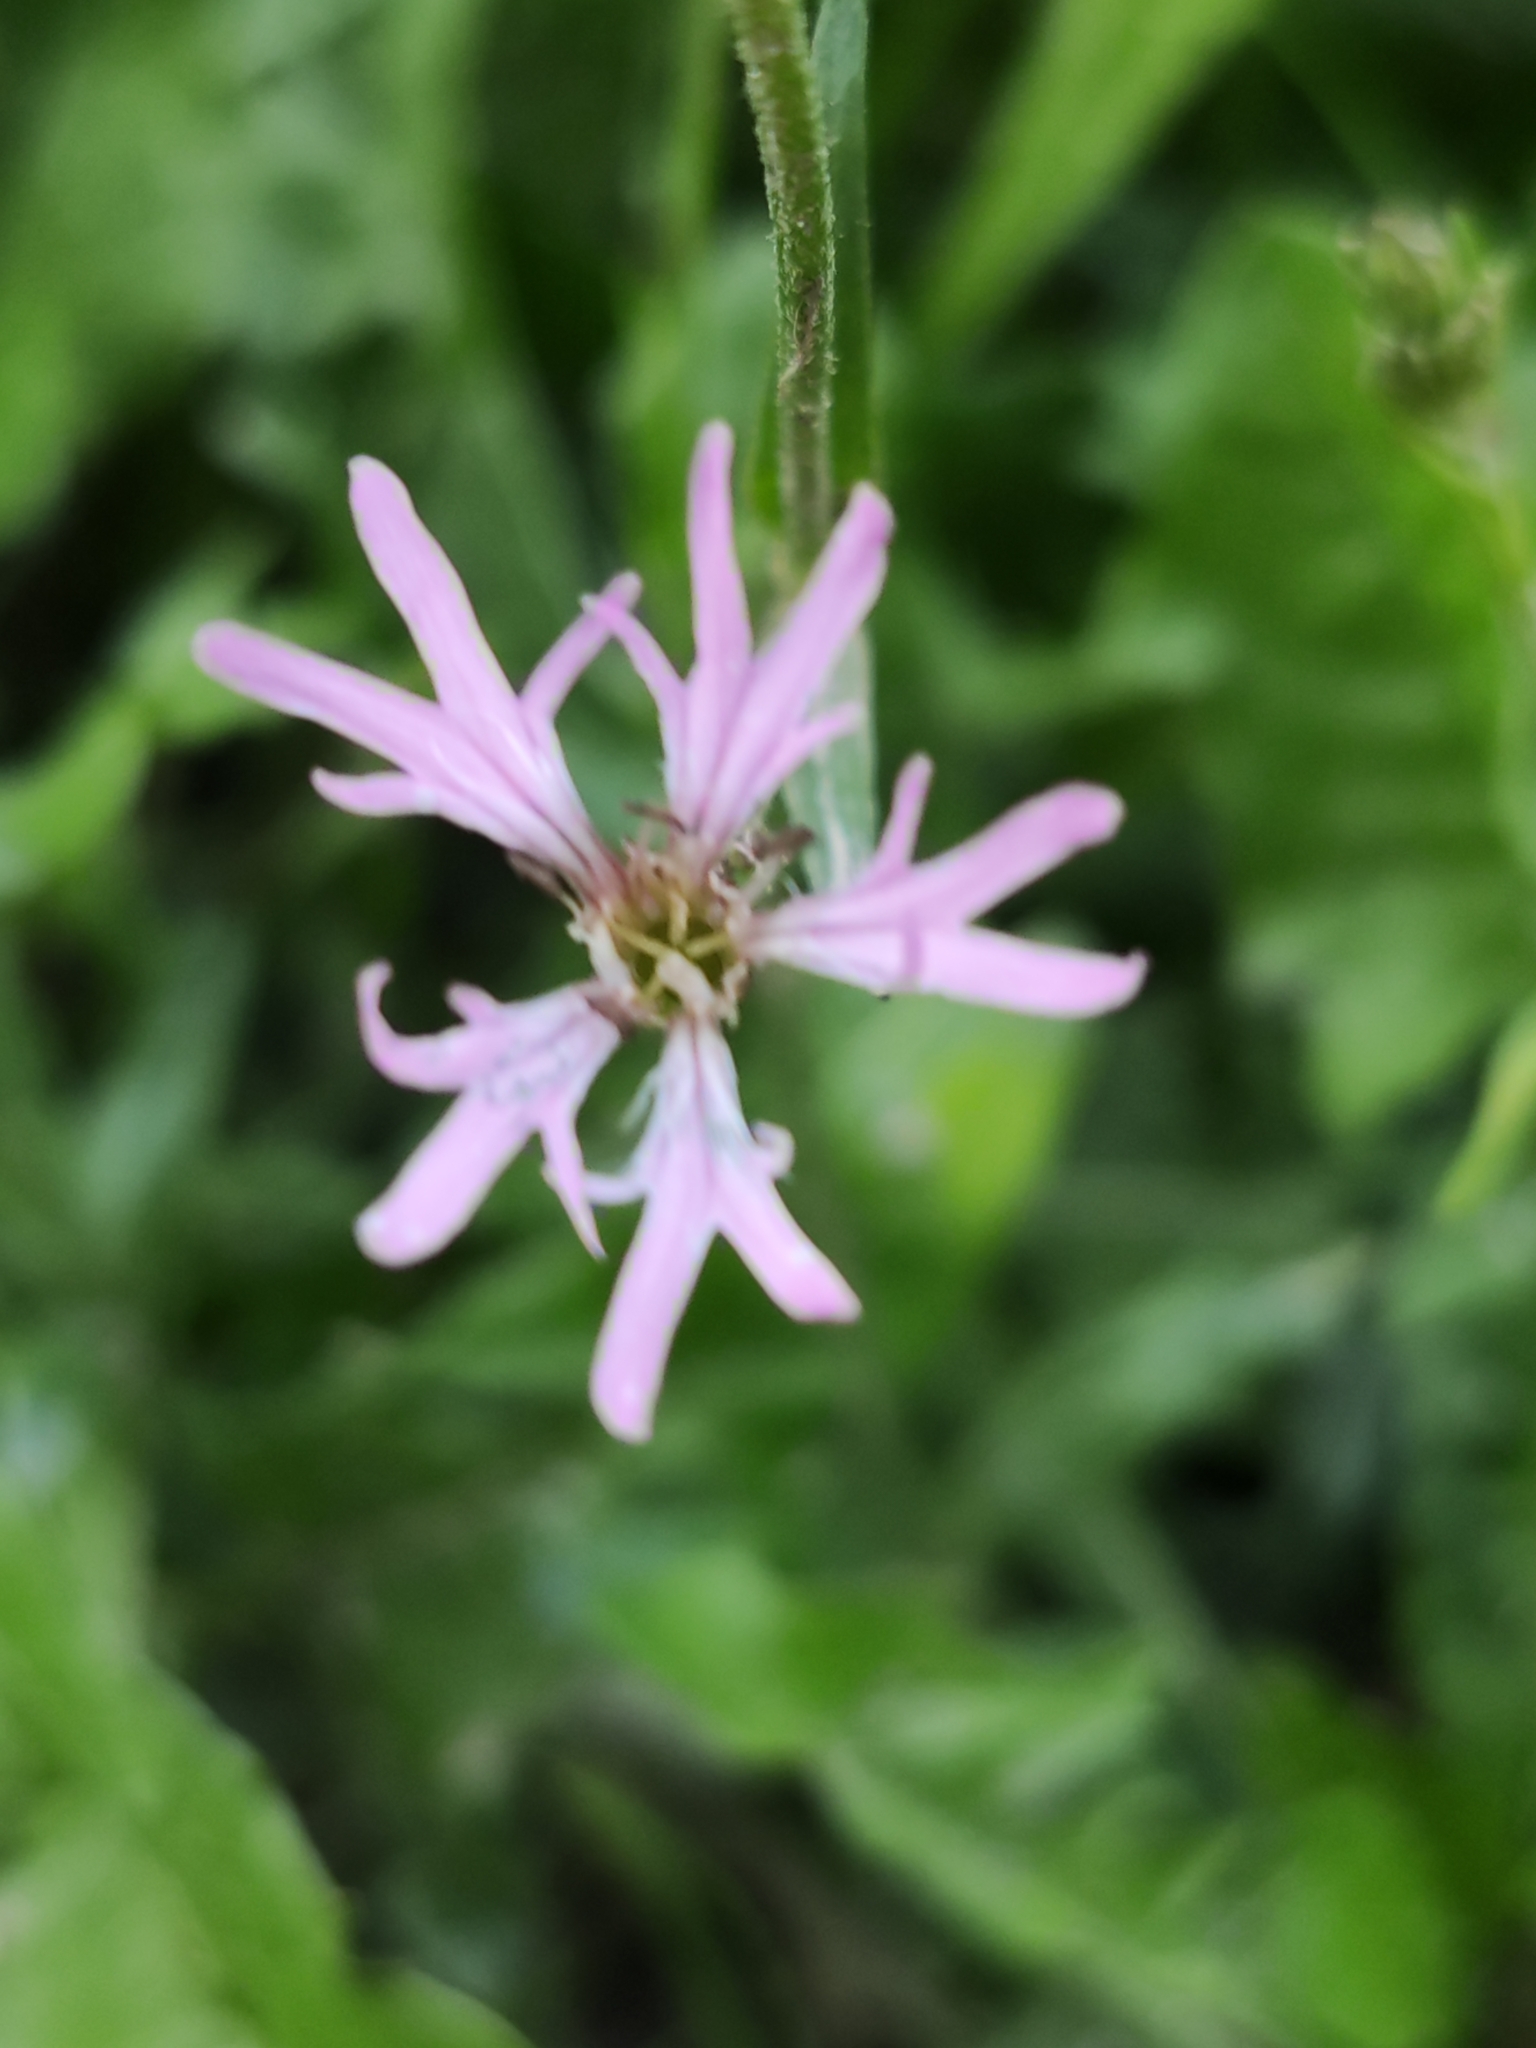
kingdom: Plantae
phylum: Tracheophyta
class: Magnoliopsida
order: Caryophyllales
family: Caryophyllaceae
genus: Silene
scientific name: Silene flos-cuculi
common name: Ragged-robin
